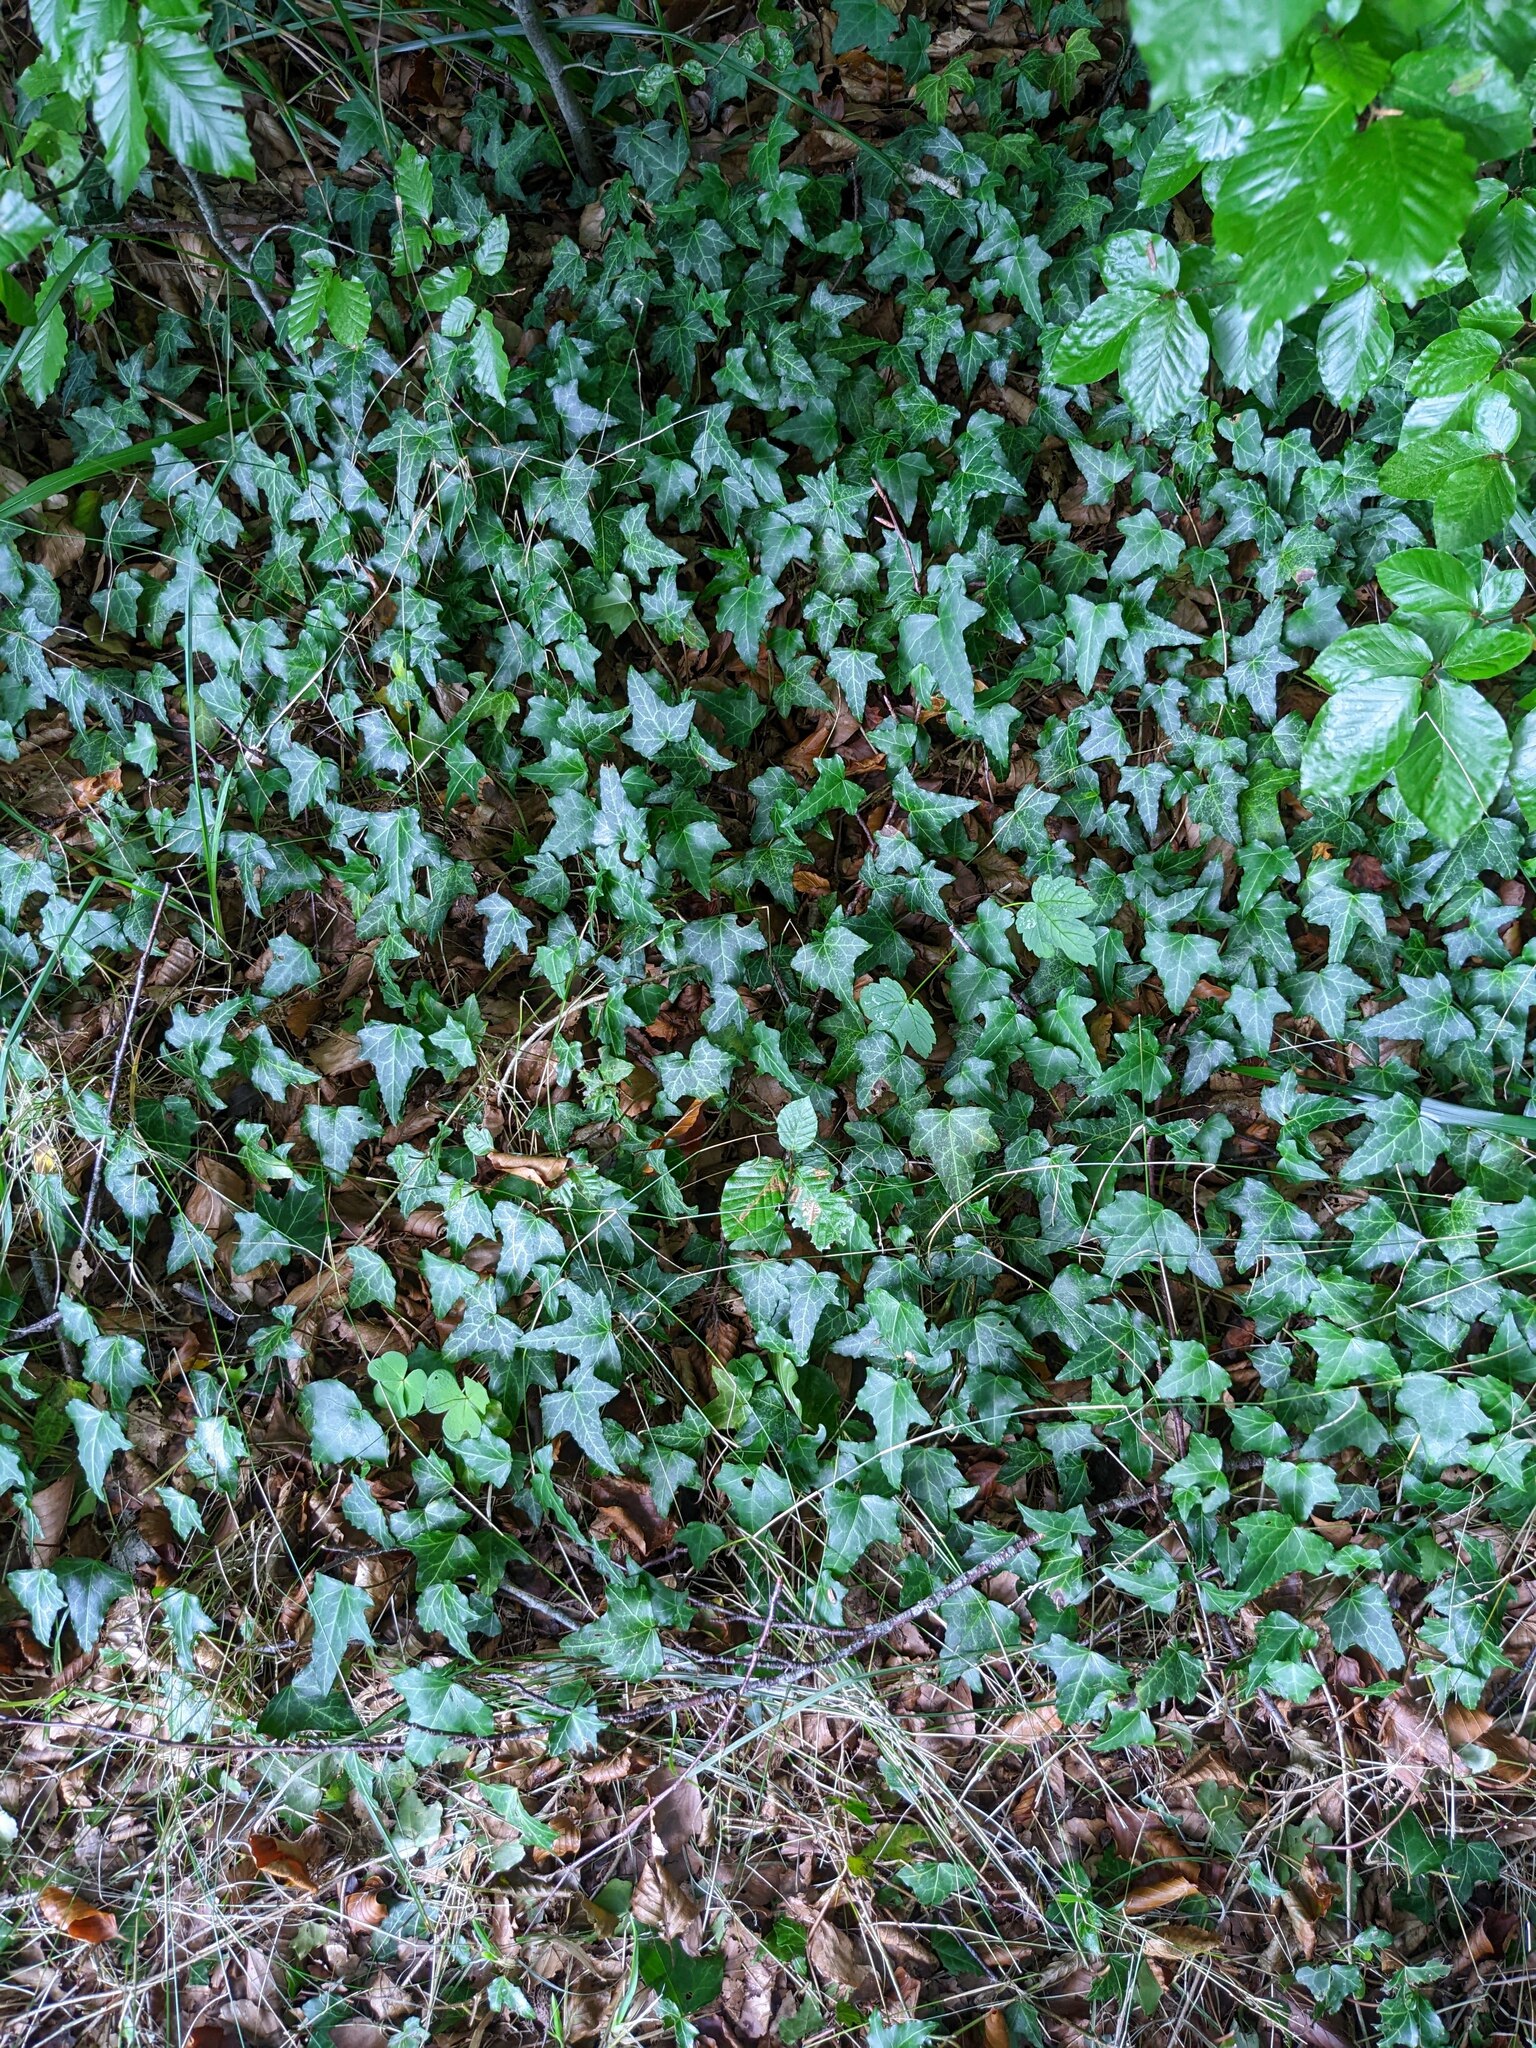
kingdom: Plantae
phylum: Tracheophyta
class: Magnoliopsida
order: Apiales
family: Araliaceae
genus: Hedera
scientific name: Hedera helix
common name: Ivy
